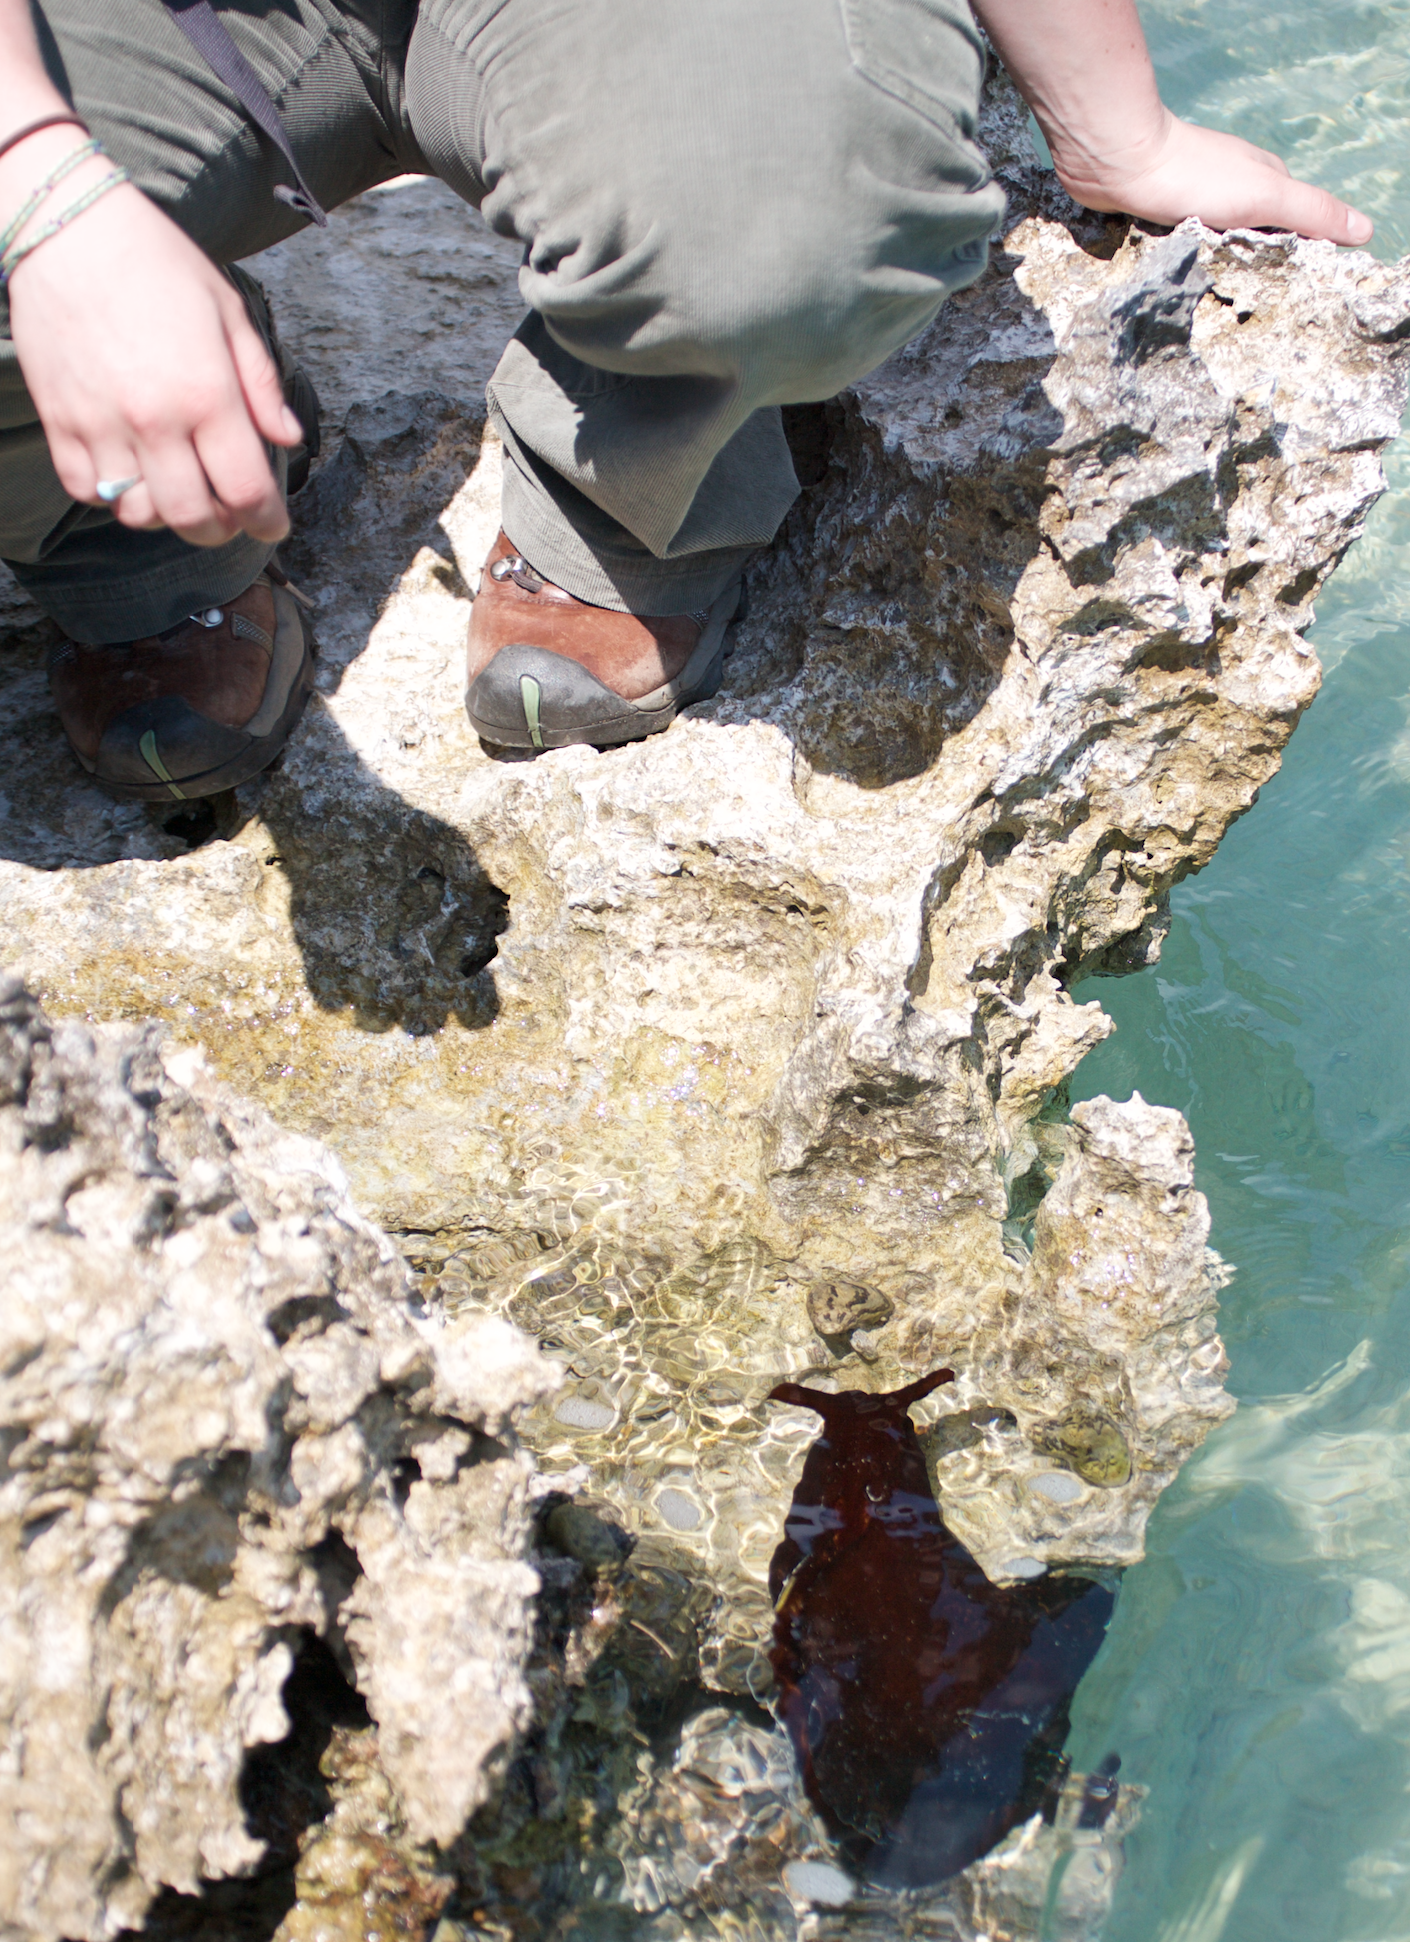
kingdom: Animalia
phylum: Mollusca
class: Gastropoda
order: Aplysiida
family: Aplysiidae
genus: Aplysia
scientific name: Aplysia morio
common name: Atlantic black seahare
